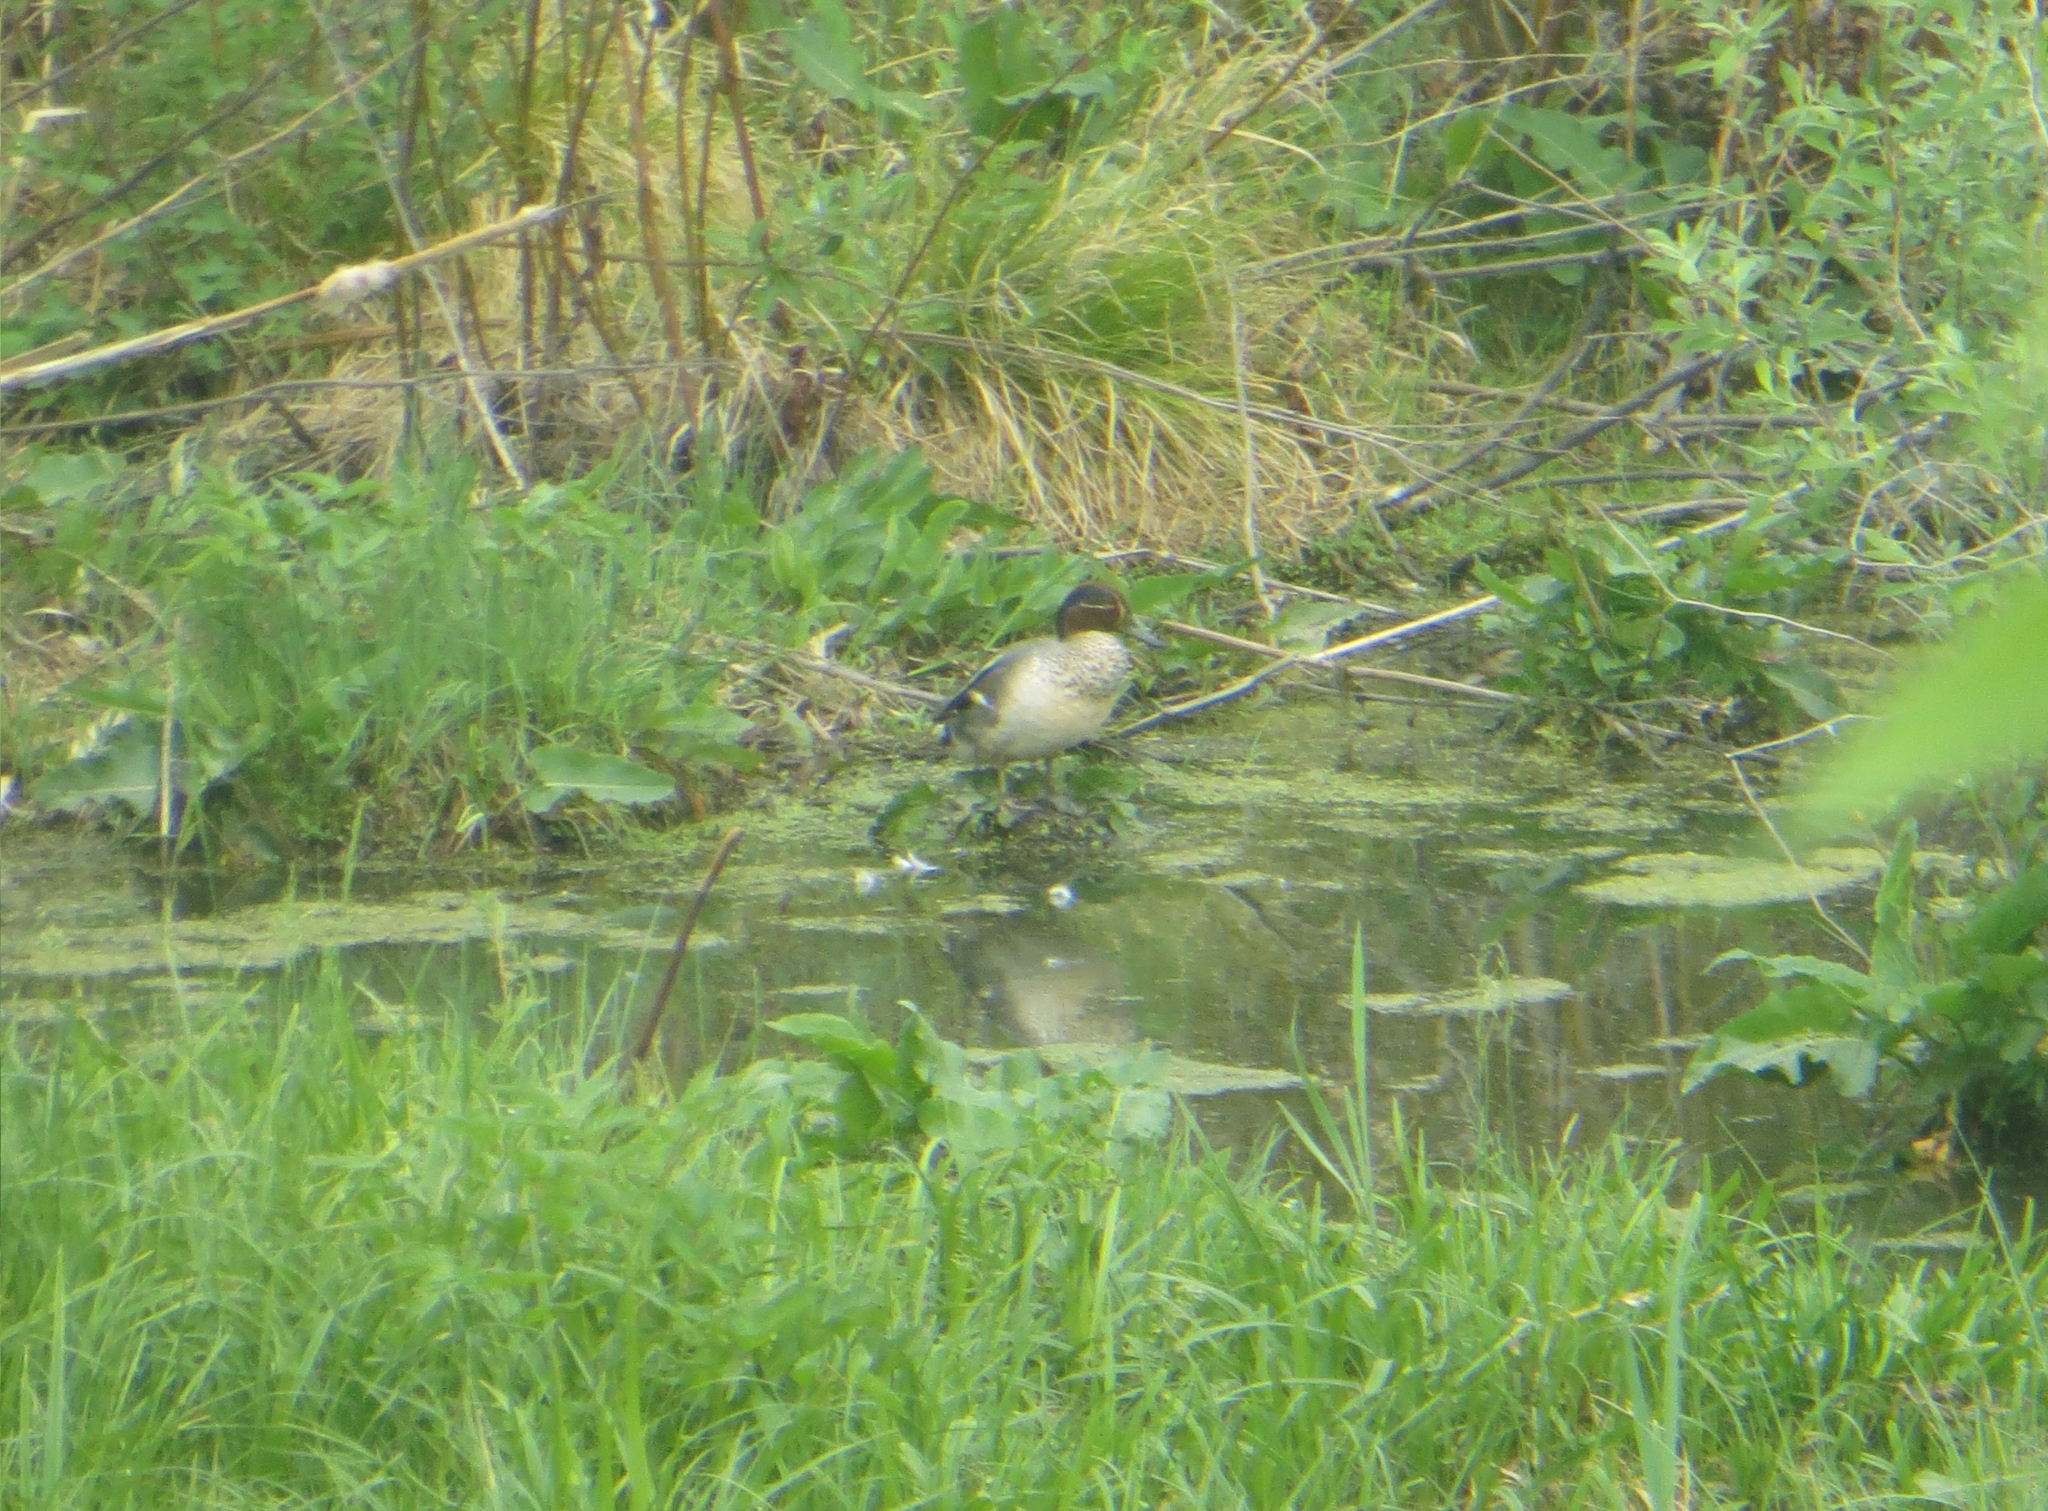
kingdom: Animalia
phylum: Chordata
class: Aves
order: Anseriformes
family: Anatidae
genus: Anas
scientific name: Anas crecca
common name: Eurasian teal
